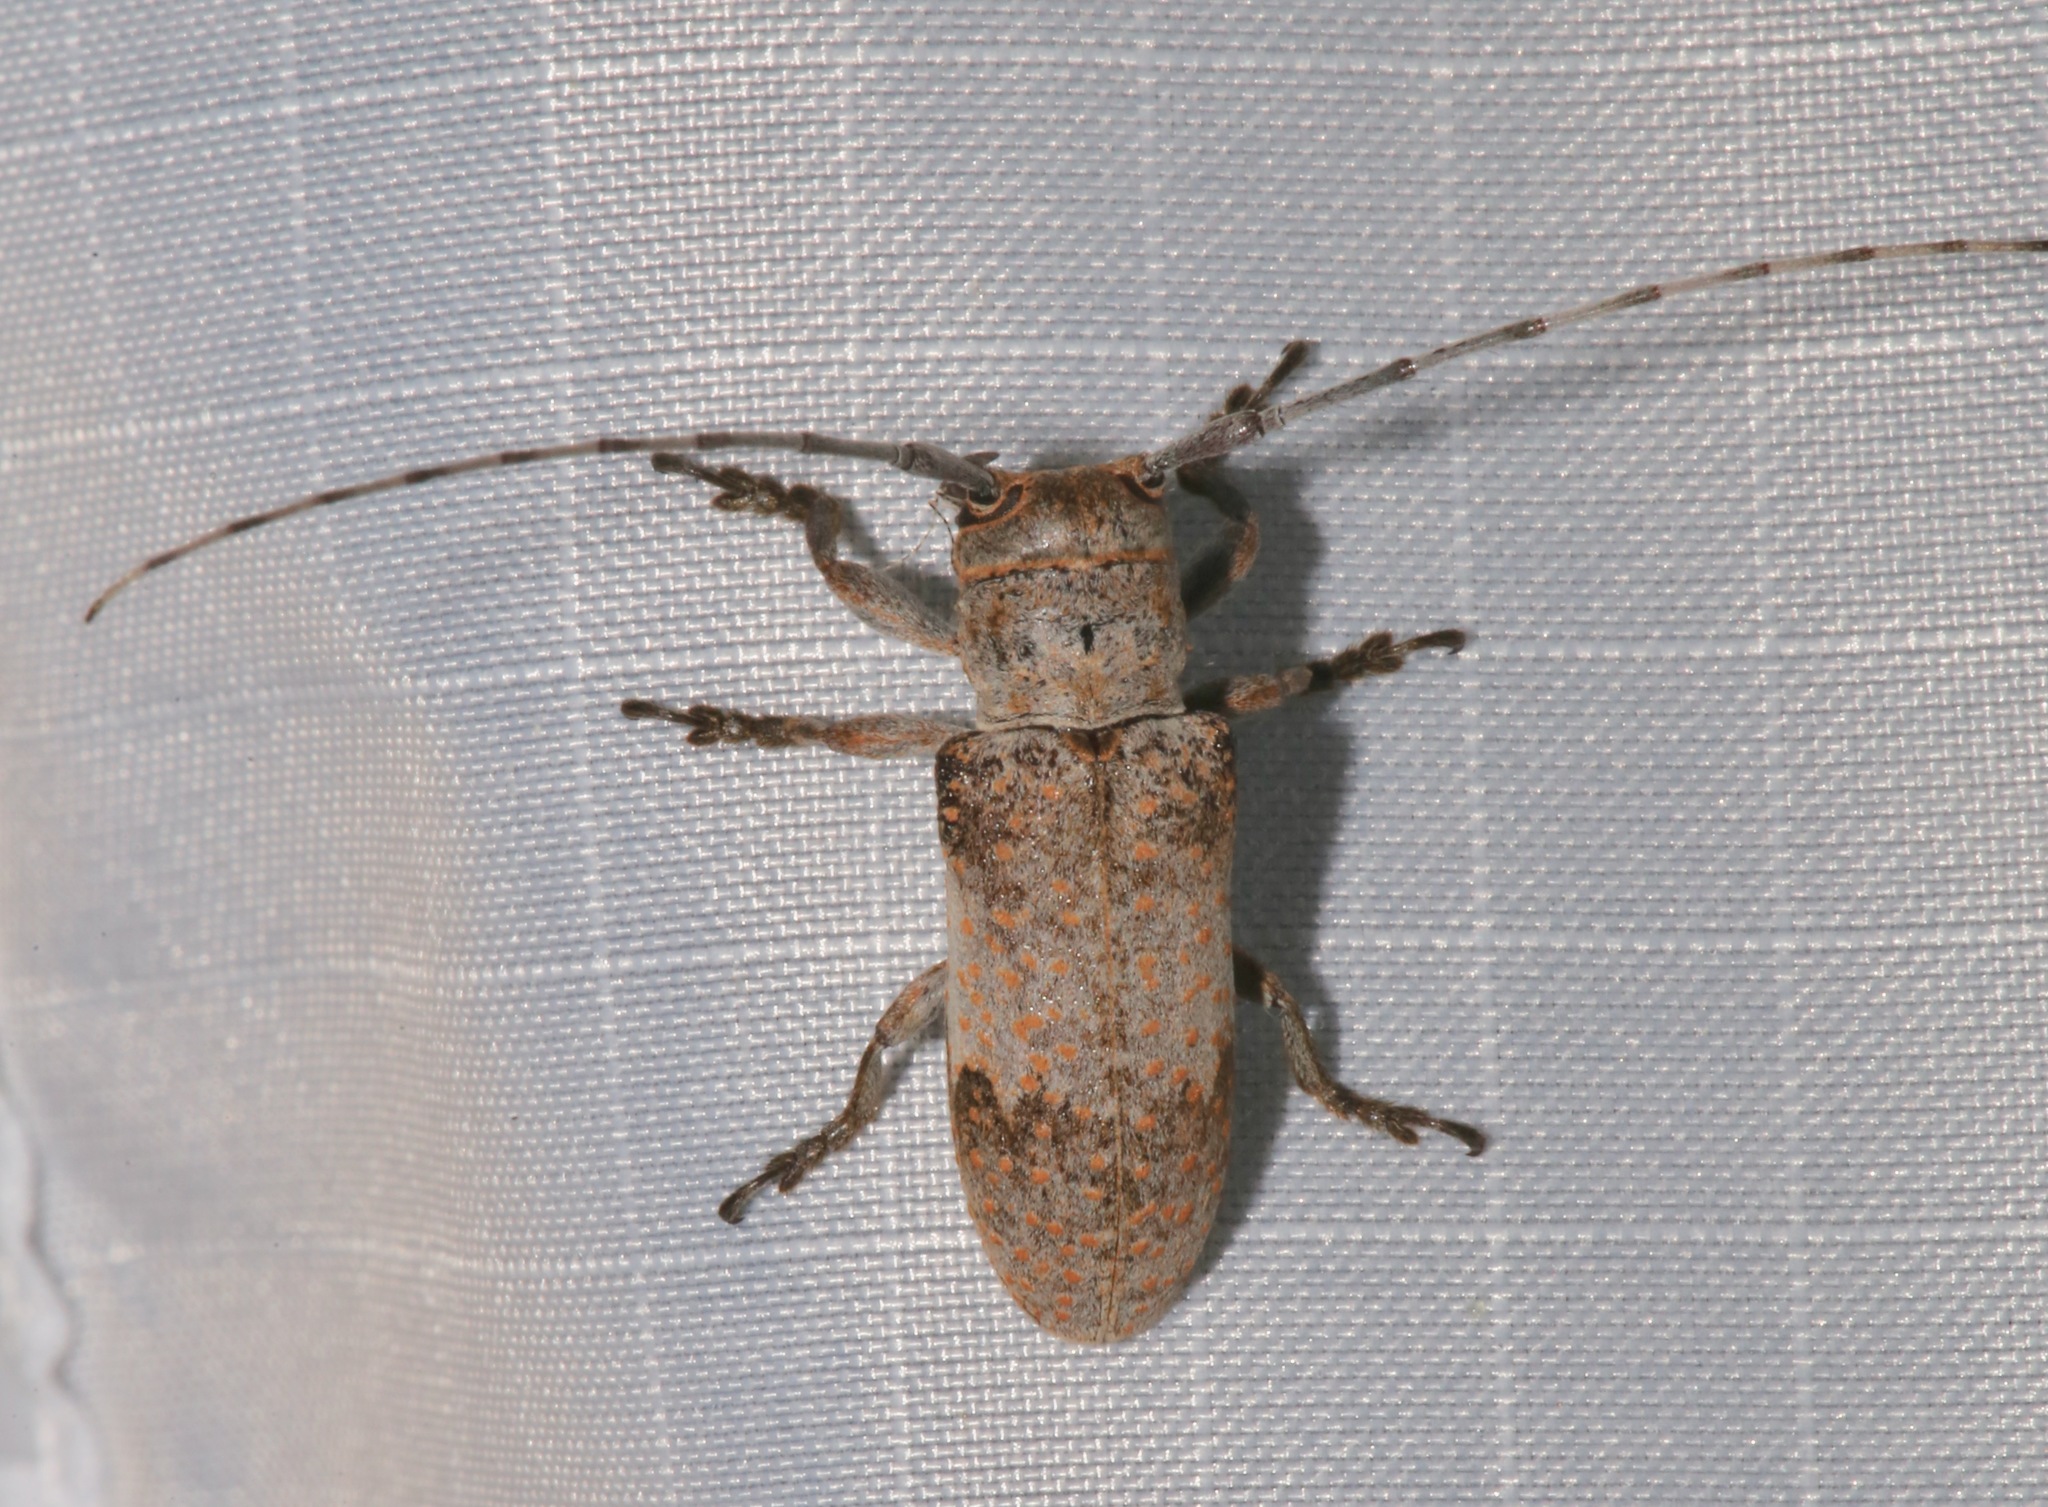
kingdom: Animalia
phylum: Arthropoda
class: Insecta
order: Coleoptera
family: Cerambycidae
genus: Oncideres
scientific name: Oncideres cingulata
